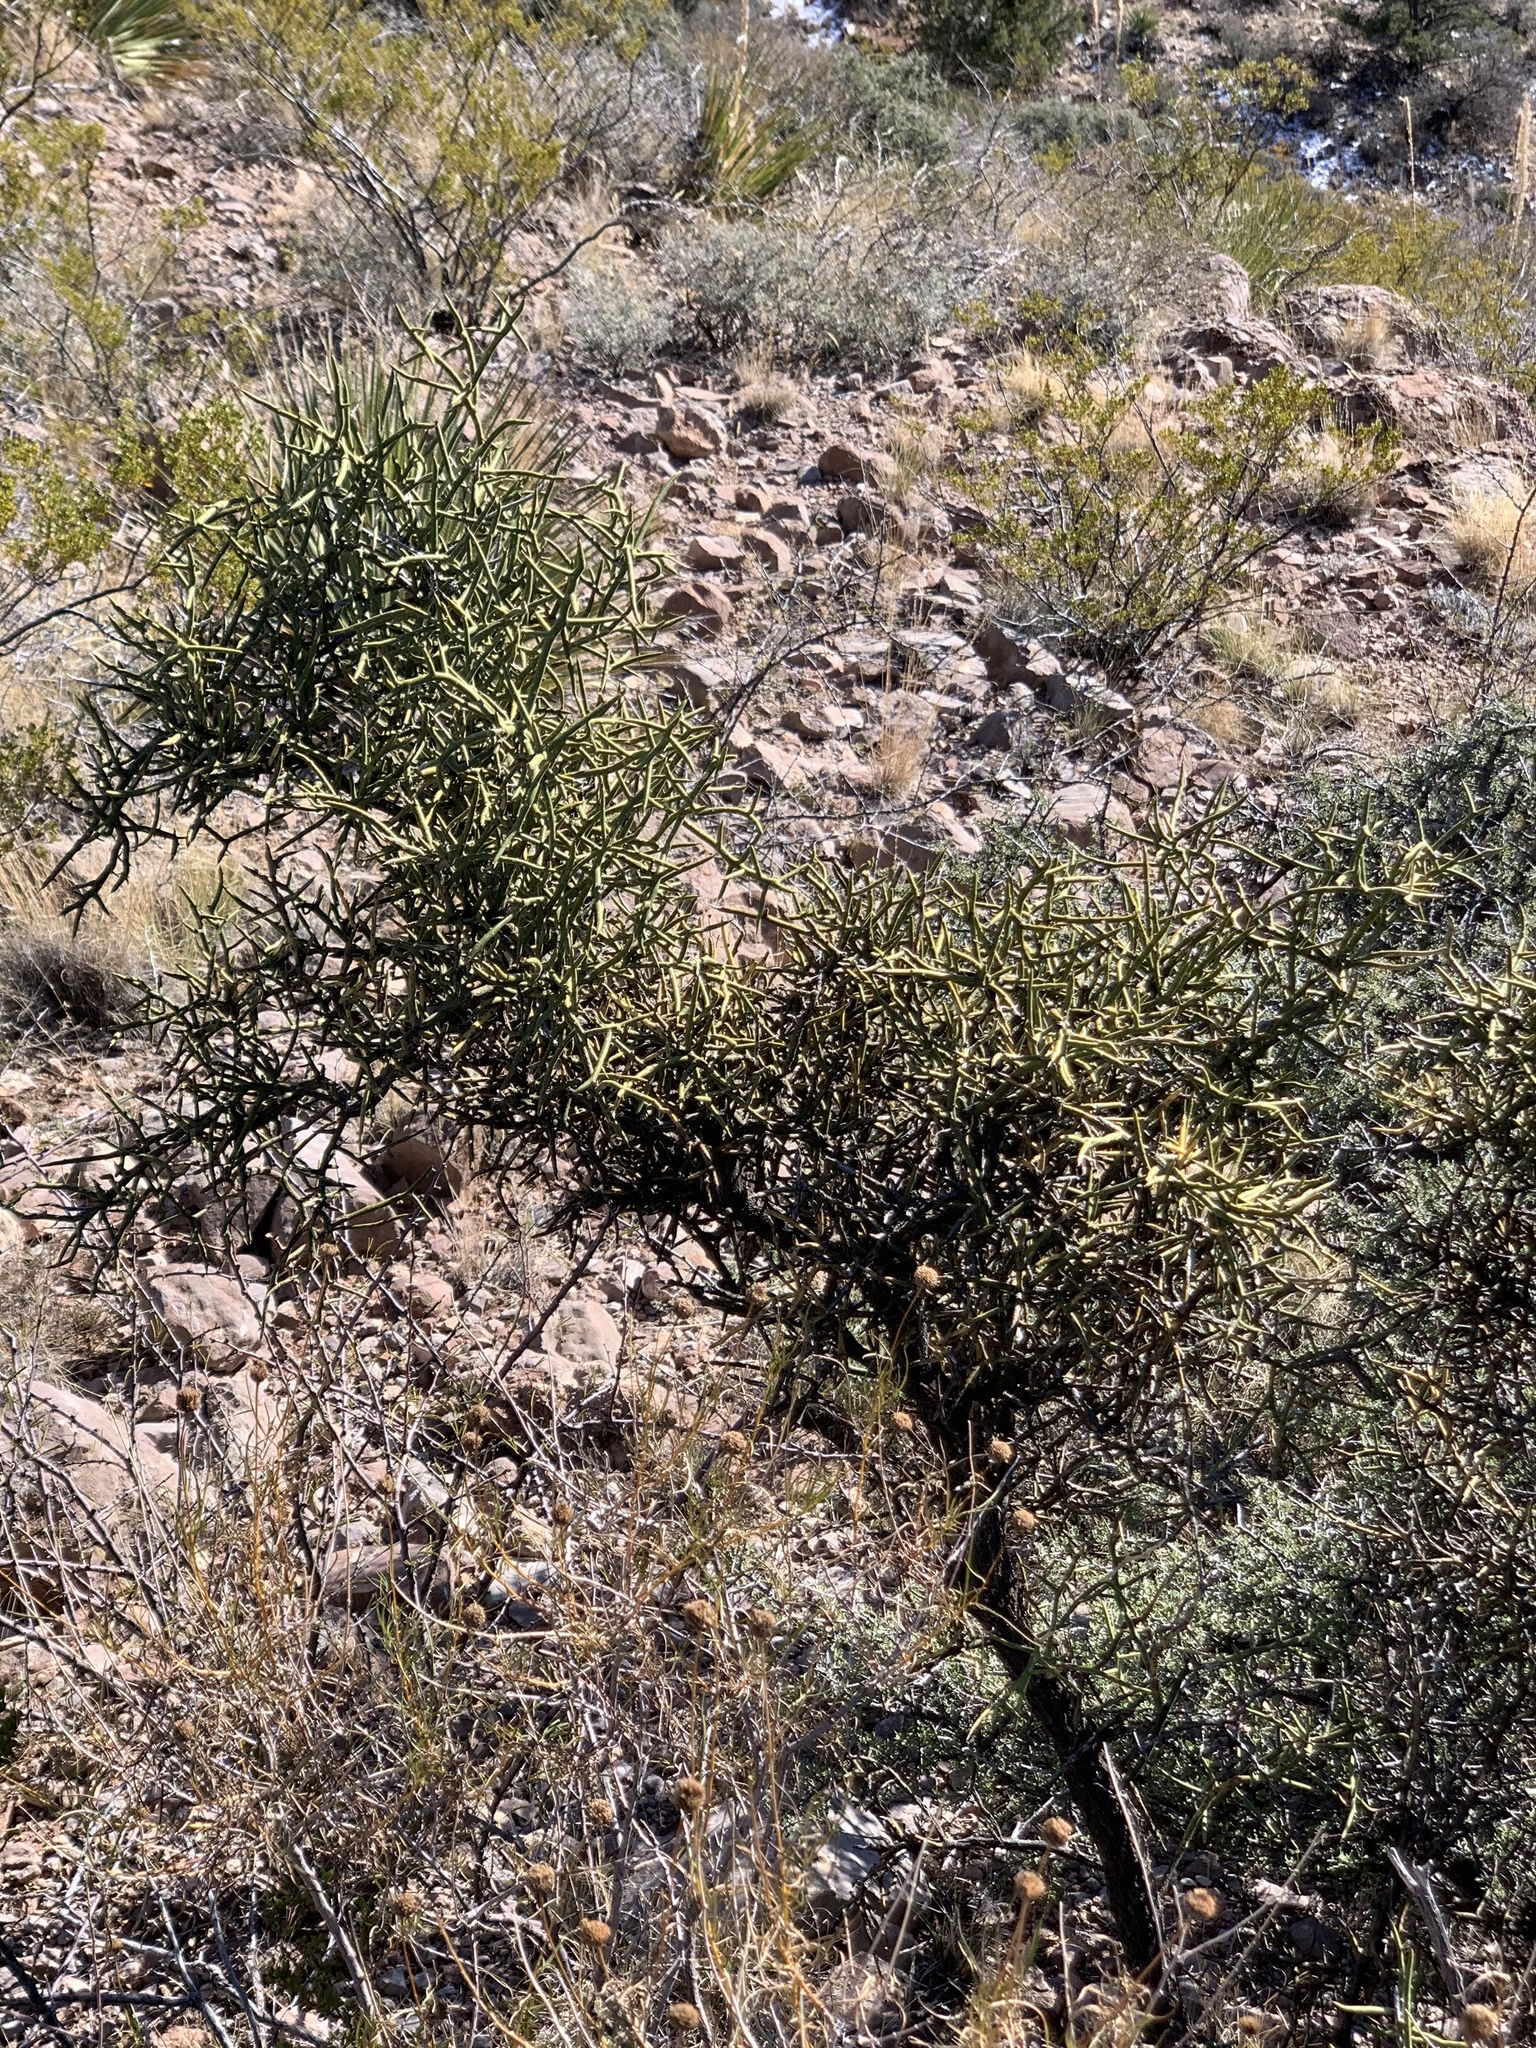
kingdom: Plantae
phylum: Tracheophyta
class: Magnoliopsida
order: Brassicales
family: Koeberliniaceae
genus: Koeberlinia
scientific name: Koeberlinia spinosa
